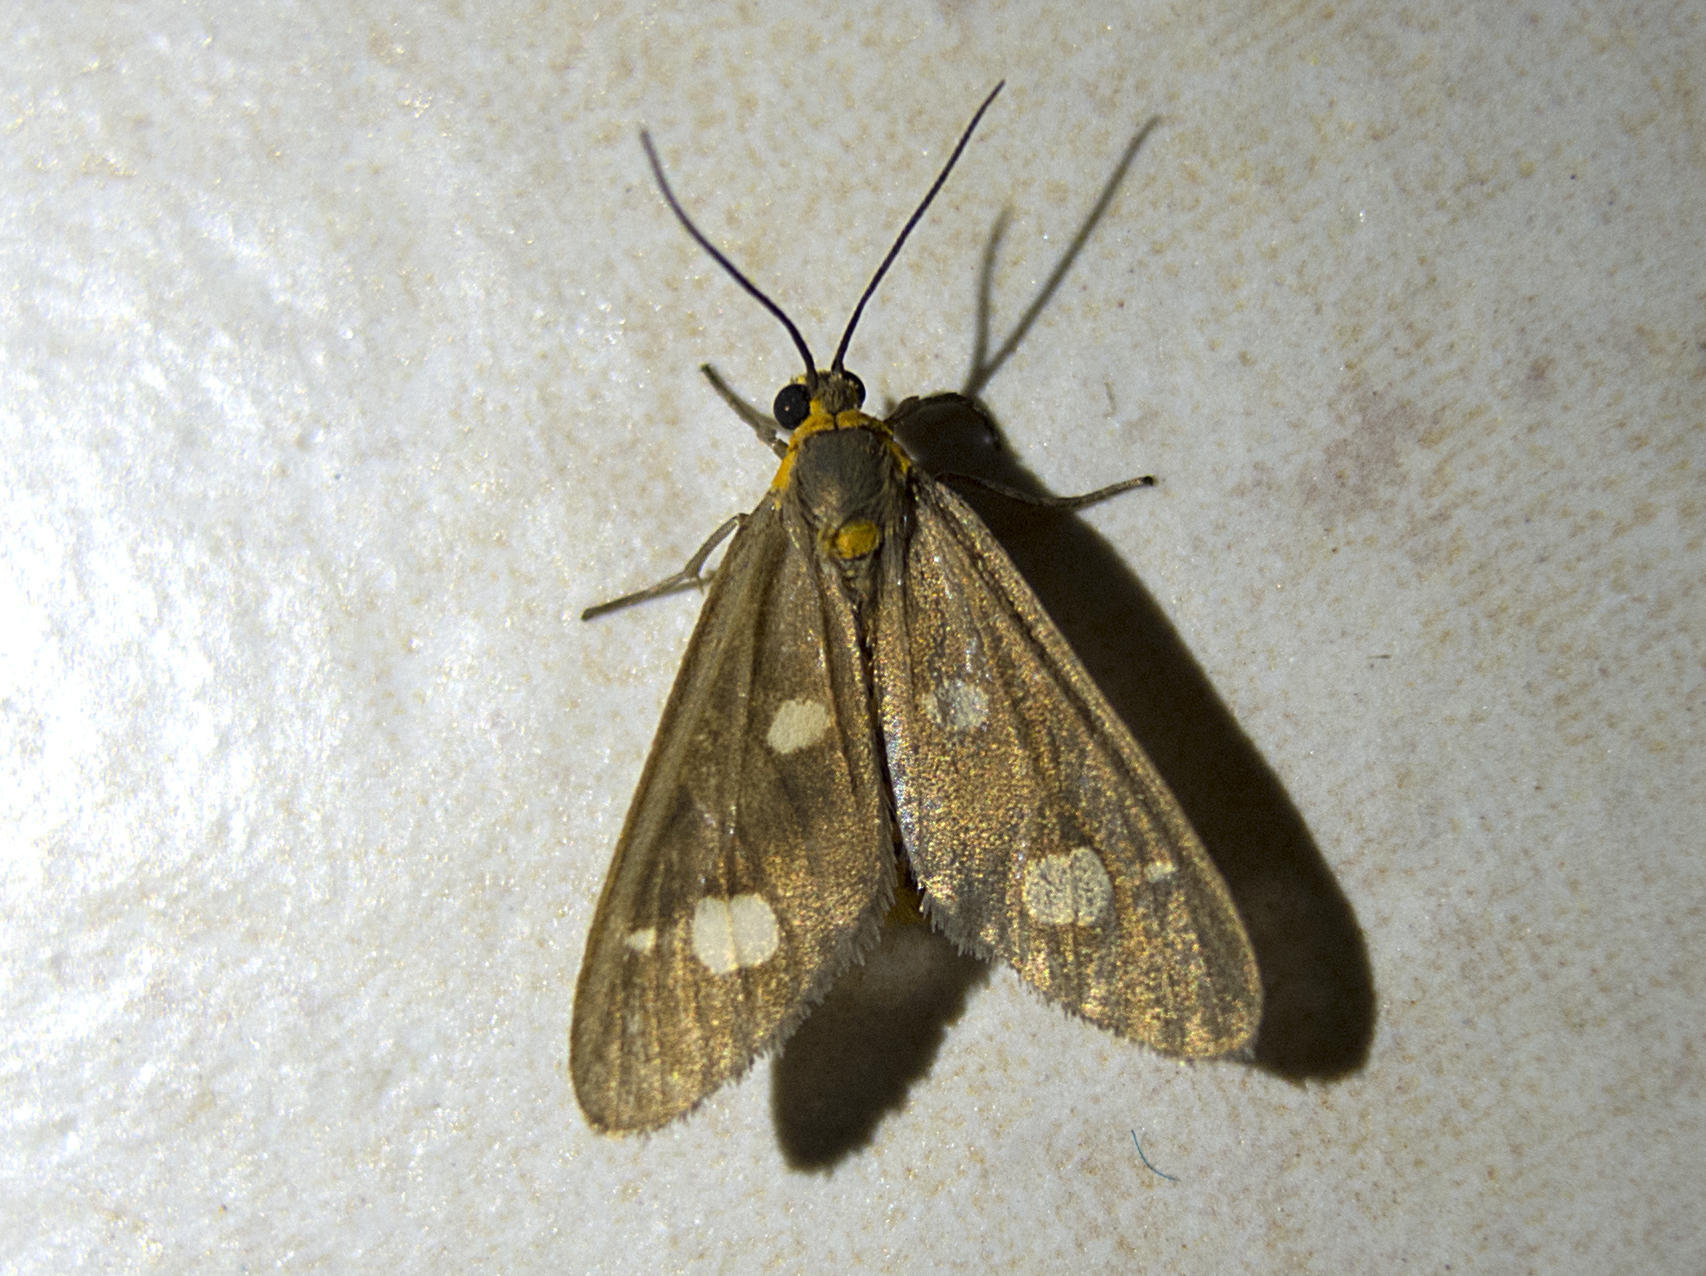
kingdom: Animalia
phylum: Arthropoda
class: Insecta
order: Lepidoptera
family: Erebidae
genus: Dysauxes
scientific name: Dysauxes punctata
